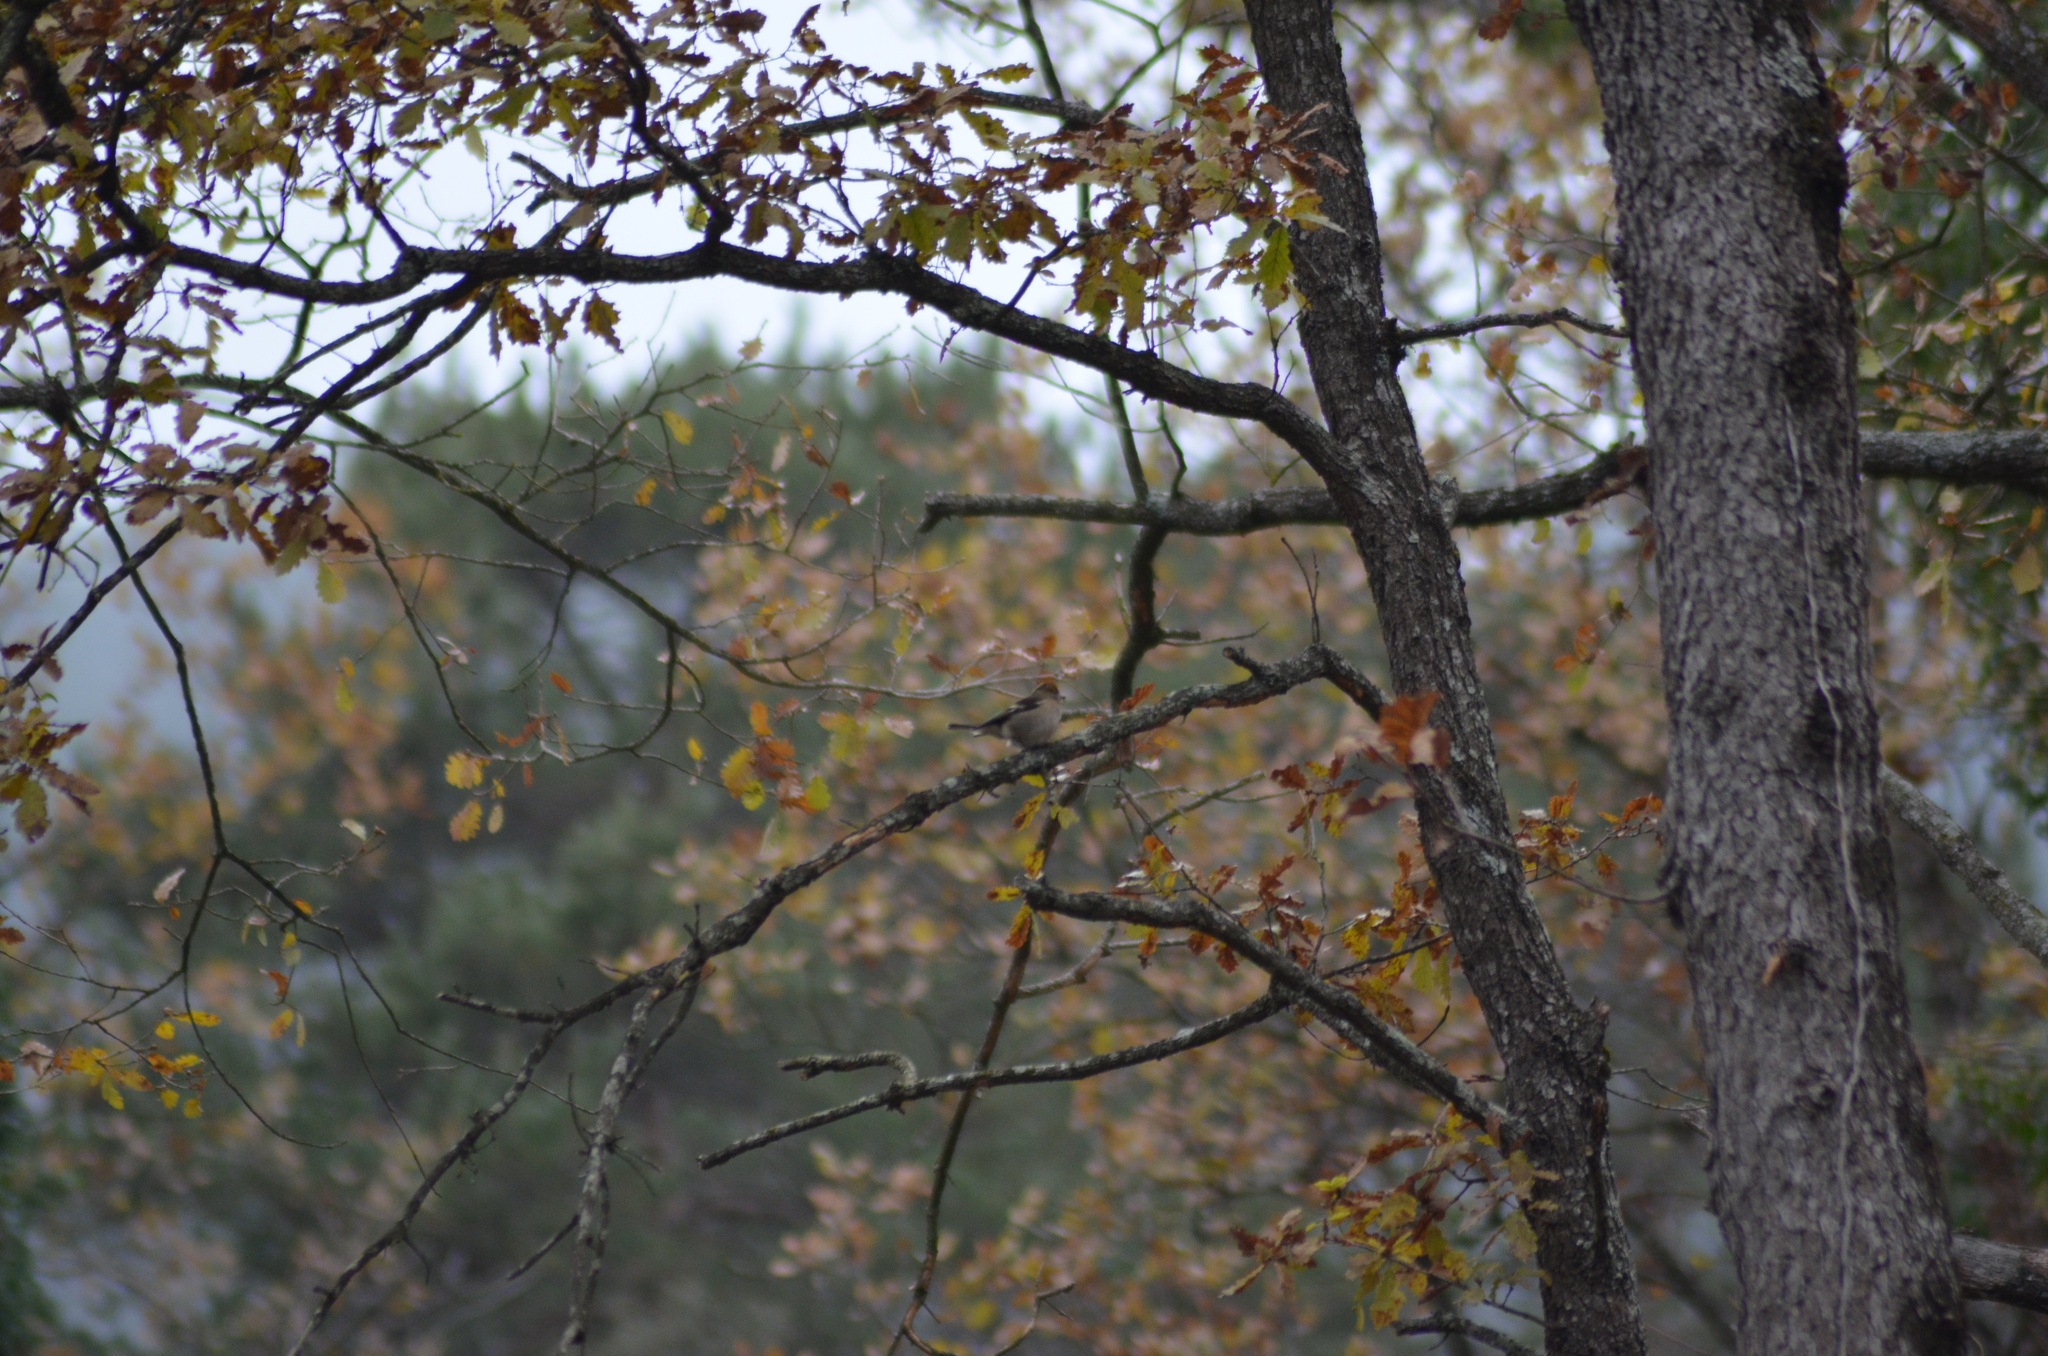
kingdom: Animalia
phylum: Chordata
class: Aves
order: Passeriformes
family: Fringillidae
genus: Fringilla
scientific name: Fringilla coelebs
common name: Common chaffinch
